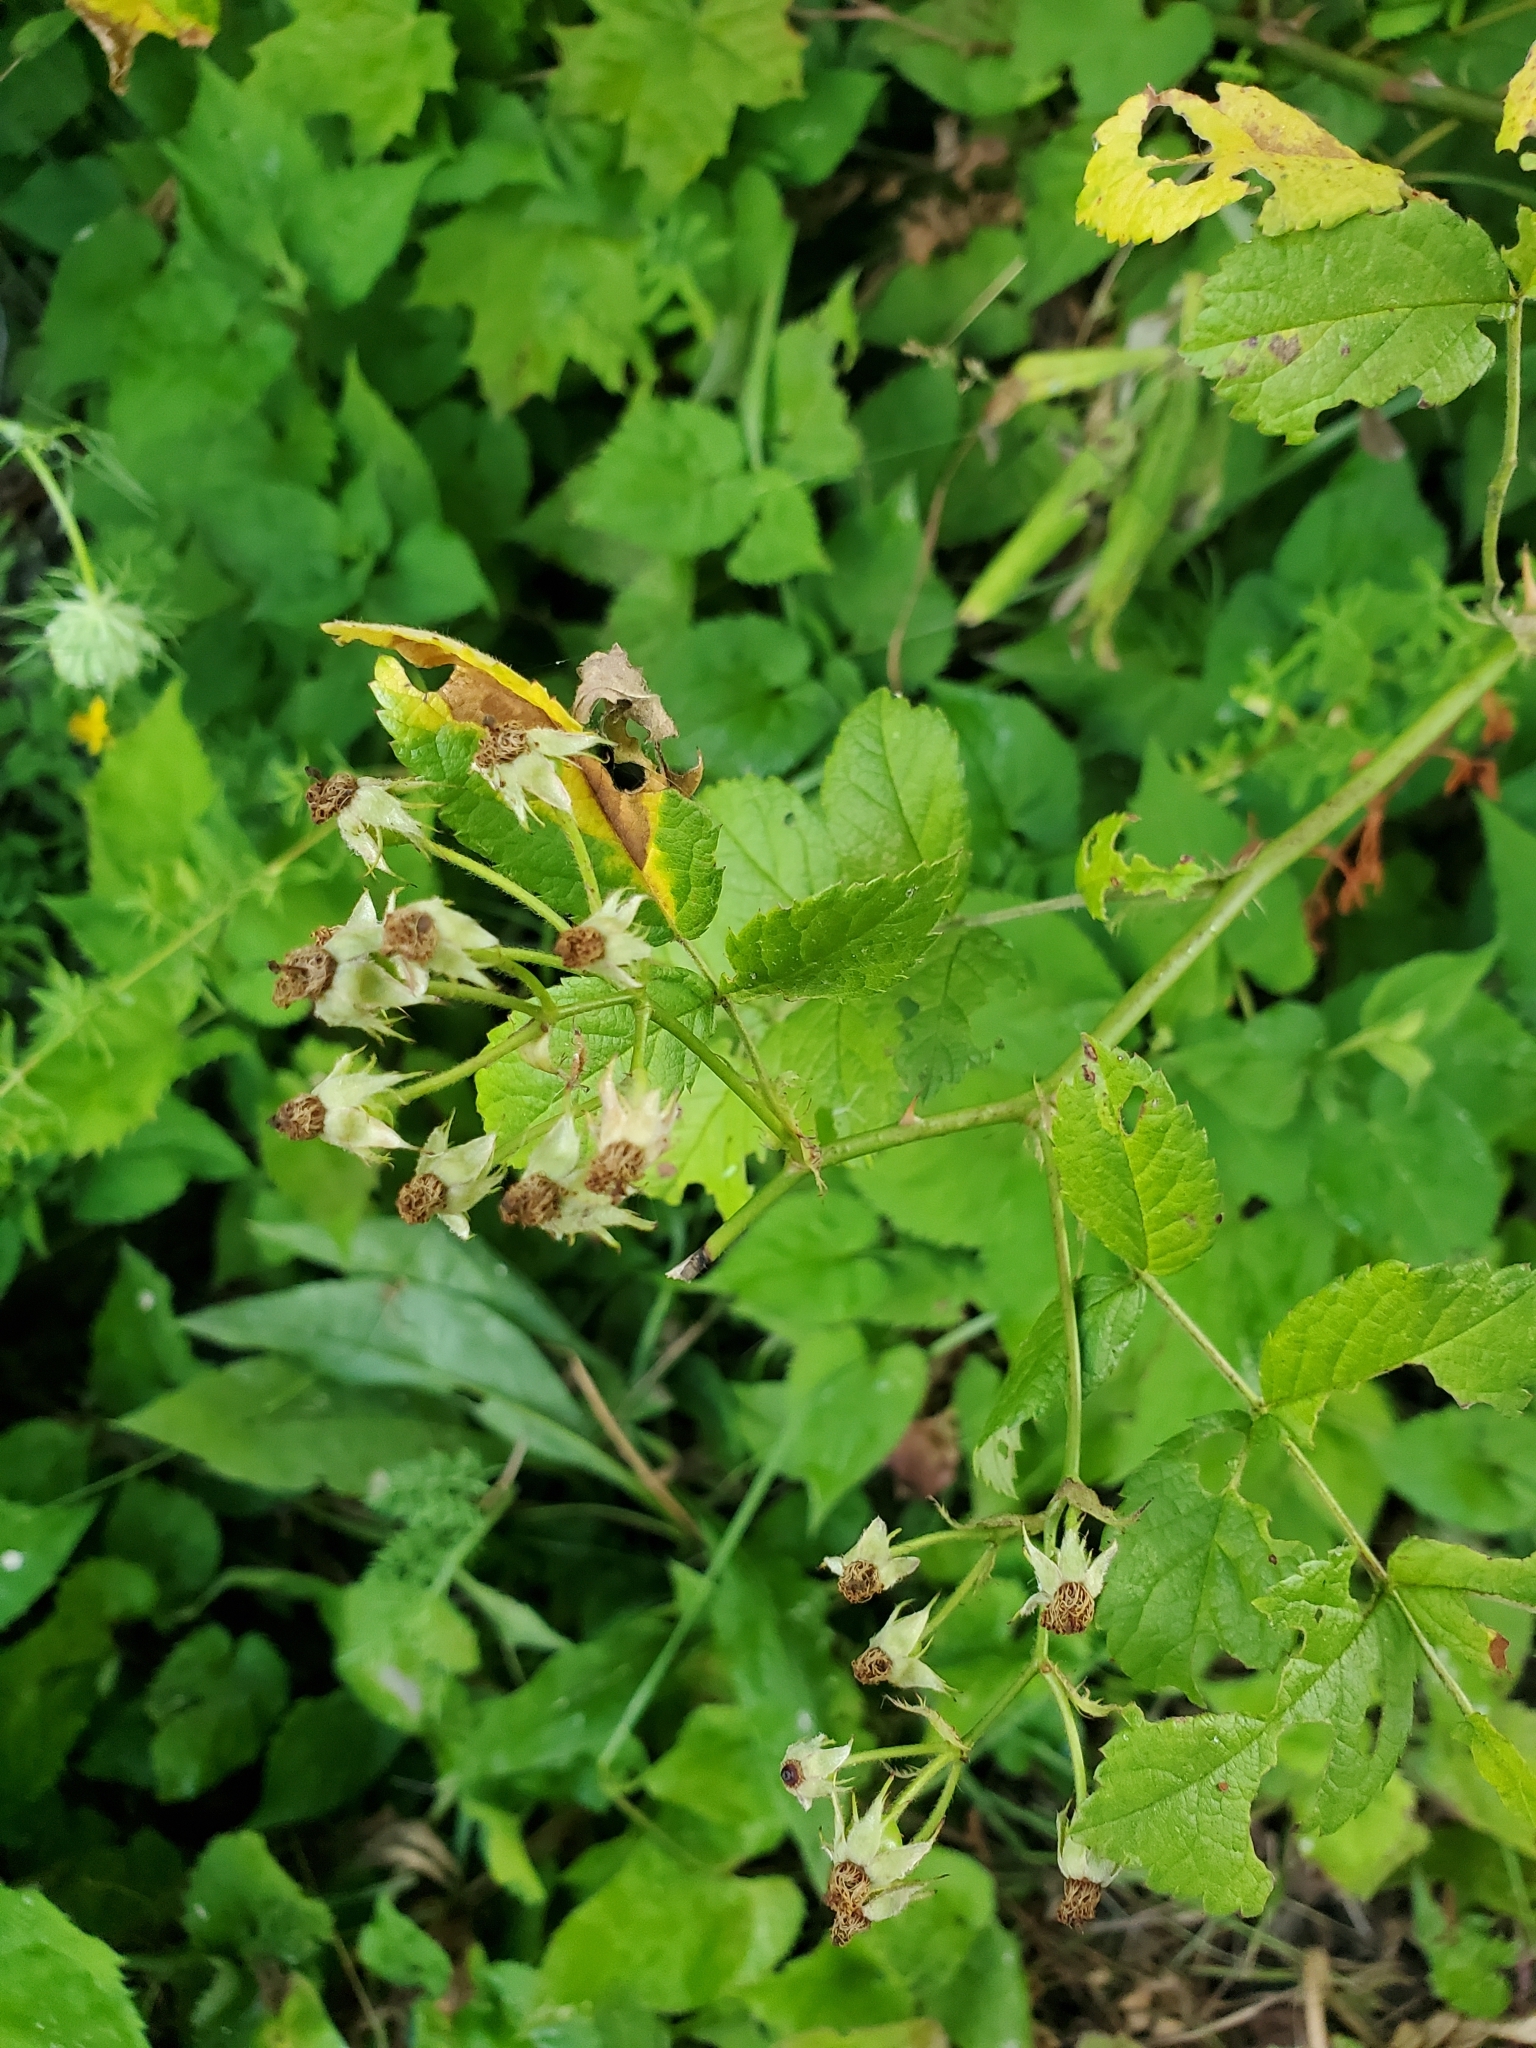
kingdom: Plantae
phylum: Tracheophyta
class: Magnoliopsida
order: Rosales
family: Rosaceae
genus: Rosa
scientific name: Rosa multiflora
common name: Multiflora rose
